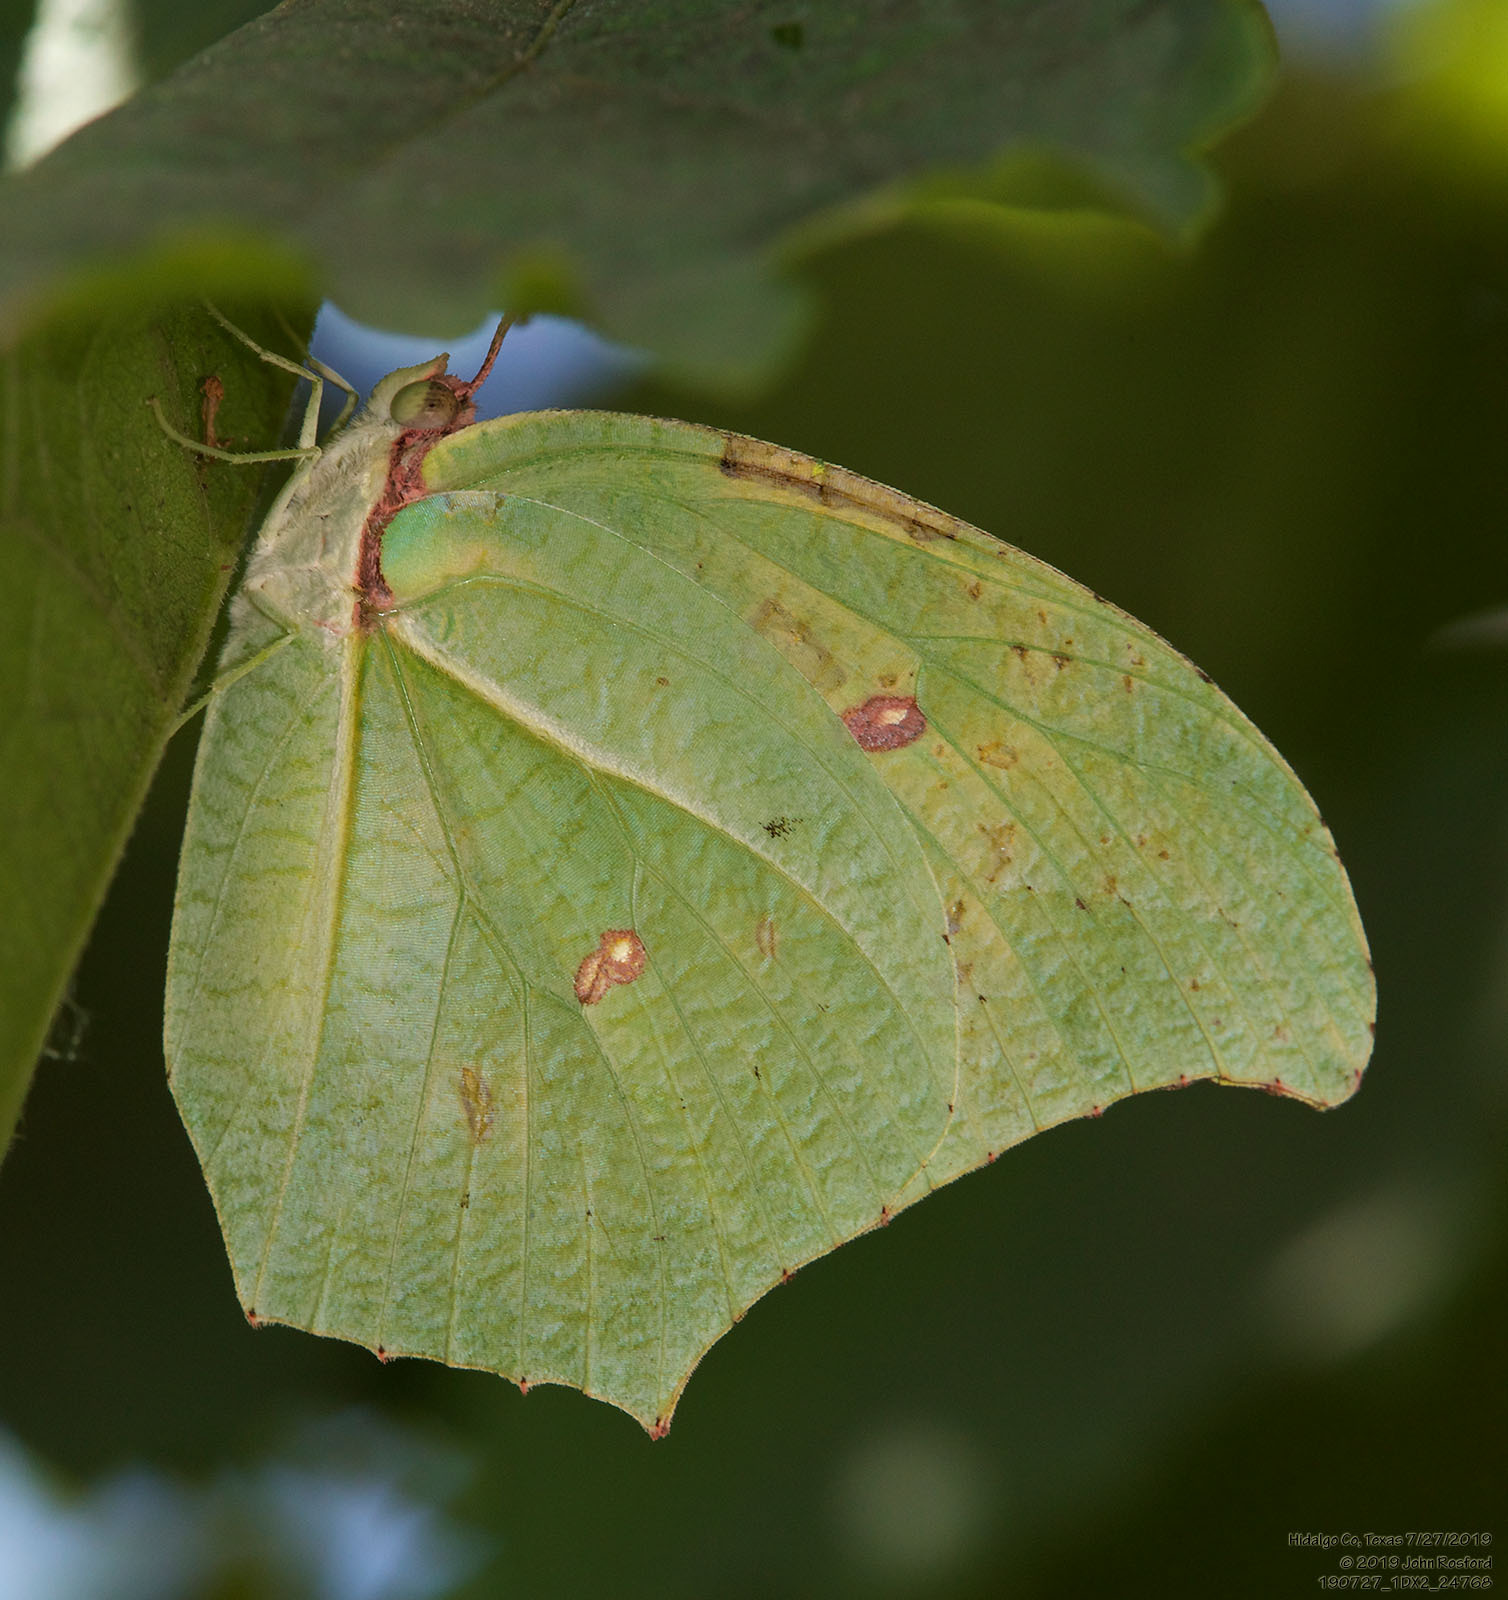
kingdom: Animalia
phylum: Arthropoda
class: Insecta
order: Lepidoptera
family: Pieridae
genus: Anteos
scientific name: Anteos maerula
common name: Angled sulphur
